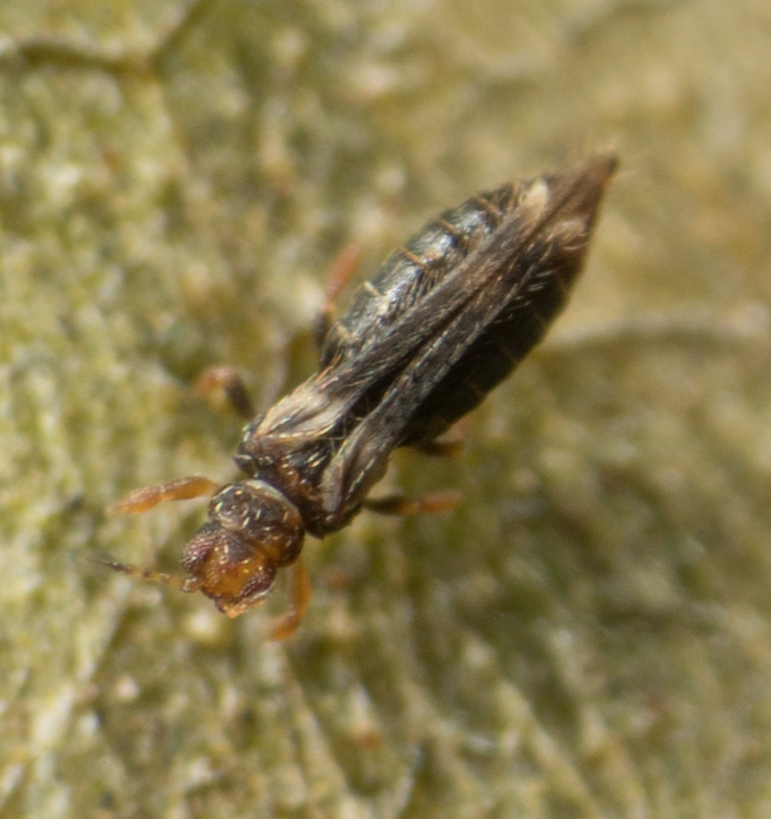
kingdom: Animalia
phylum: Arthropoda
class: Insecta
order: Thysanoptera
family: Thripidae
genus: Hercinothrips
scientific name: Hercinothrips femoralis
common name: Banded greenhouse thrips
